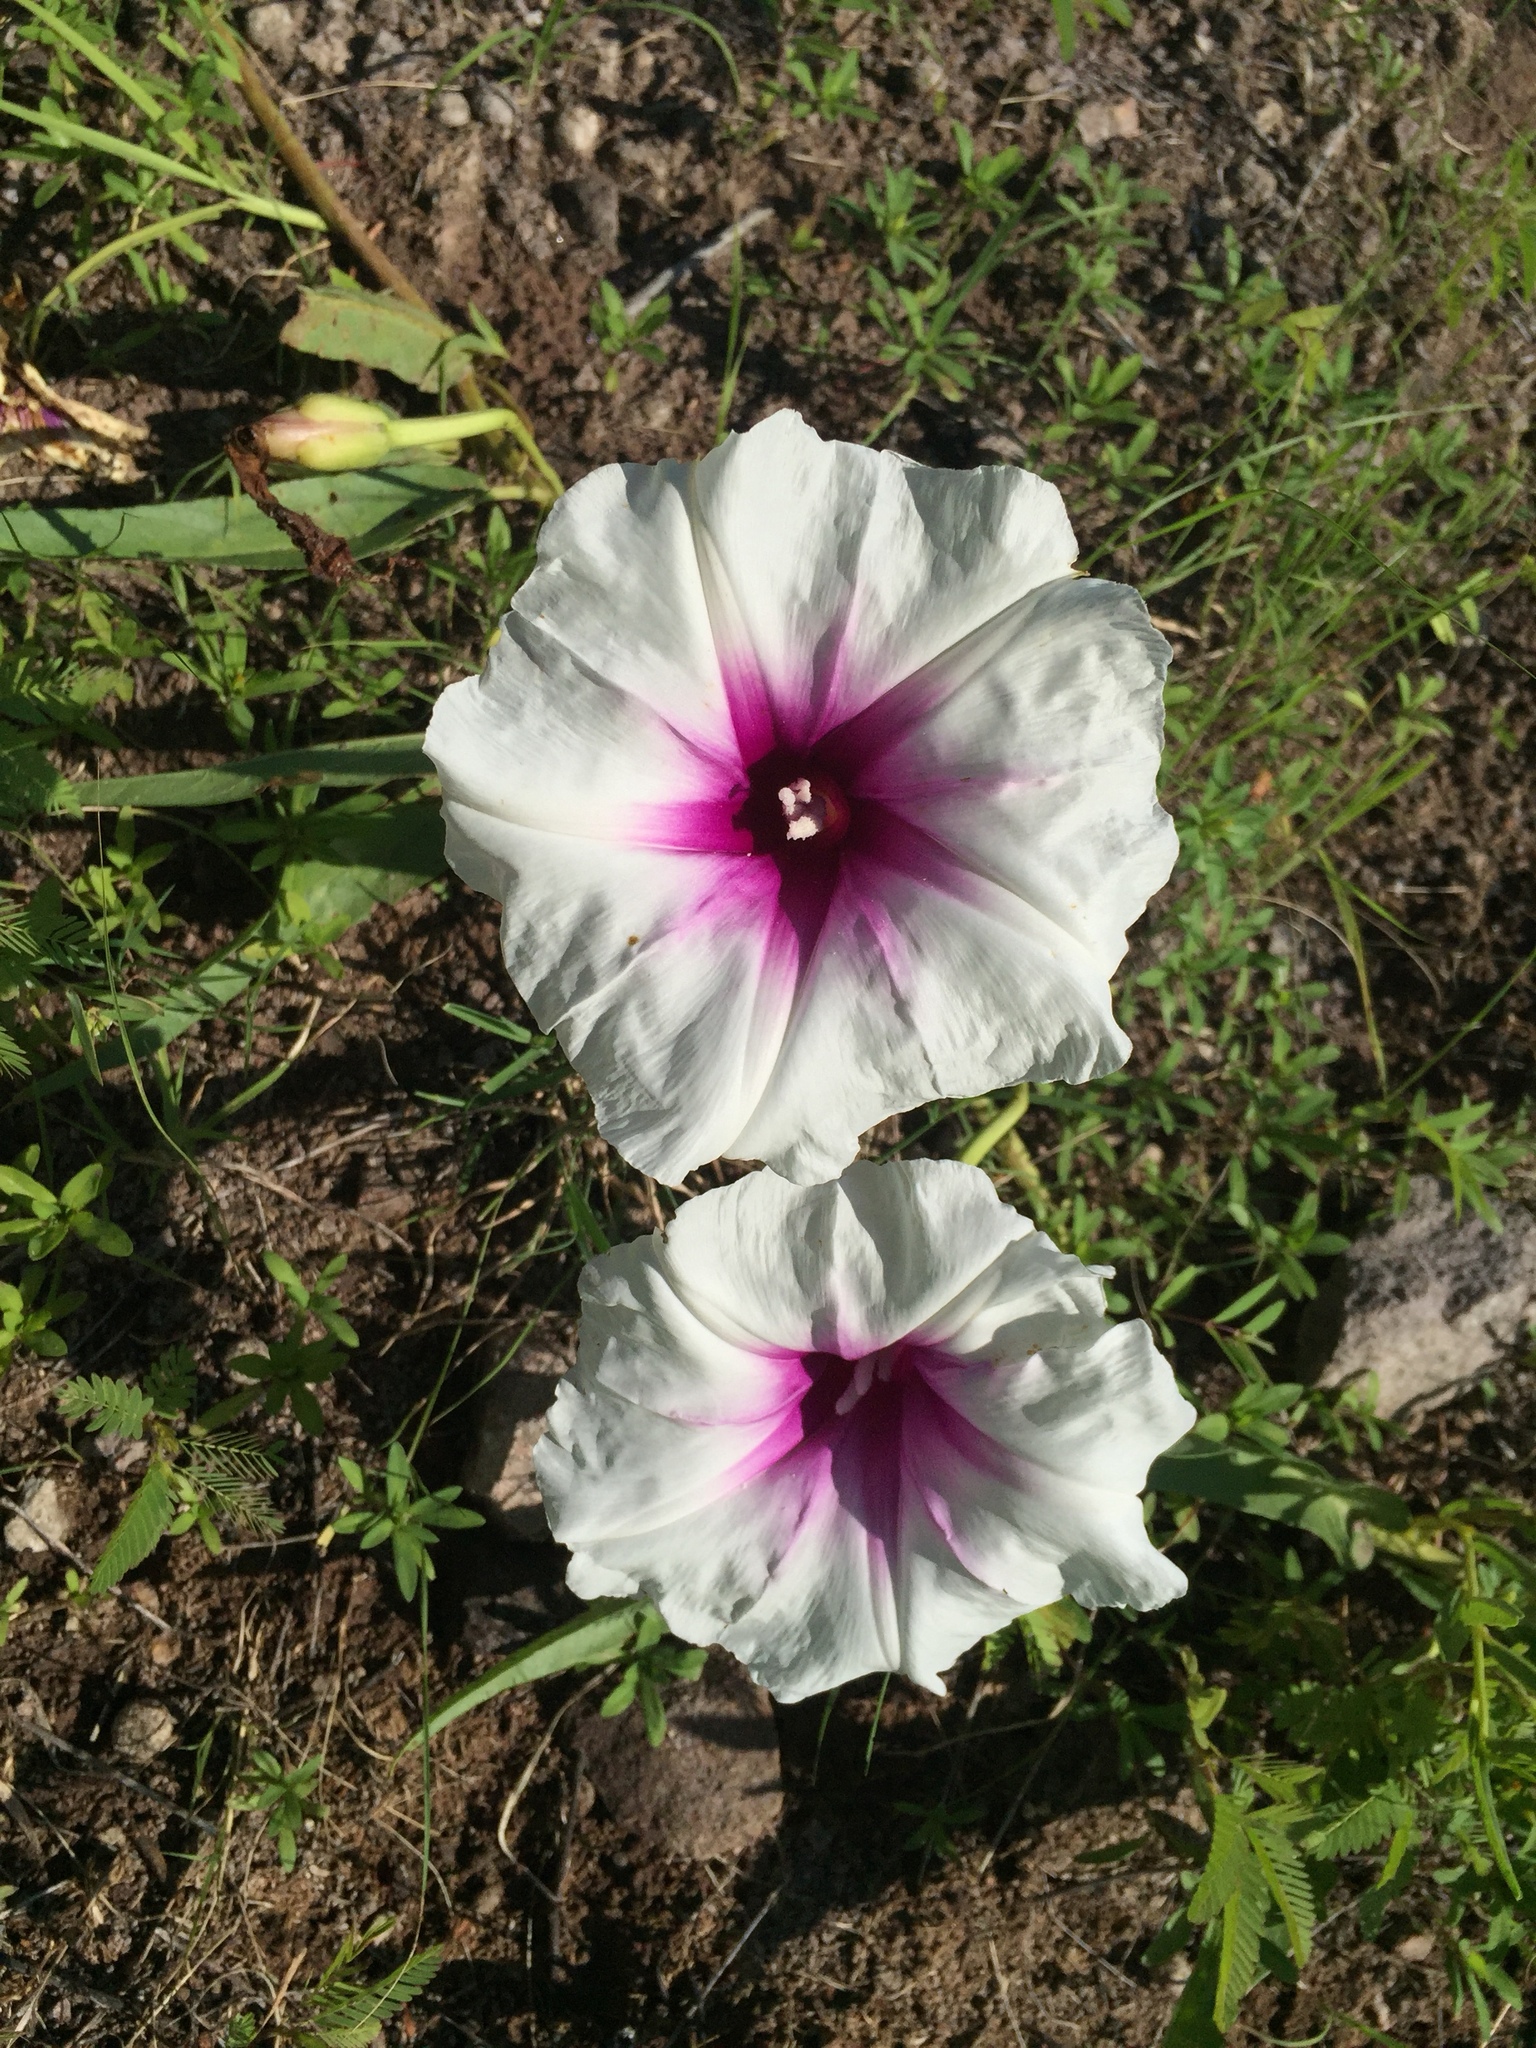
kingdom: Plantae
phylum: Tracheophyta
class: Magnoliopsida
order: Solanales
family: Convolvulaceae
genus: Ipomoea
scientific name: Ipomoea longifolia
